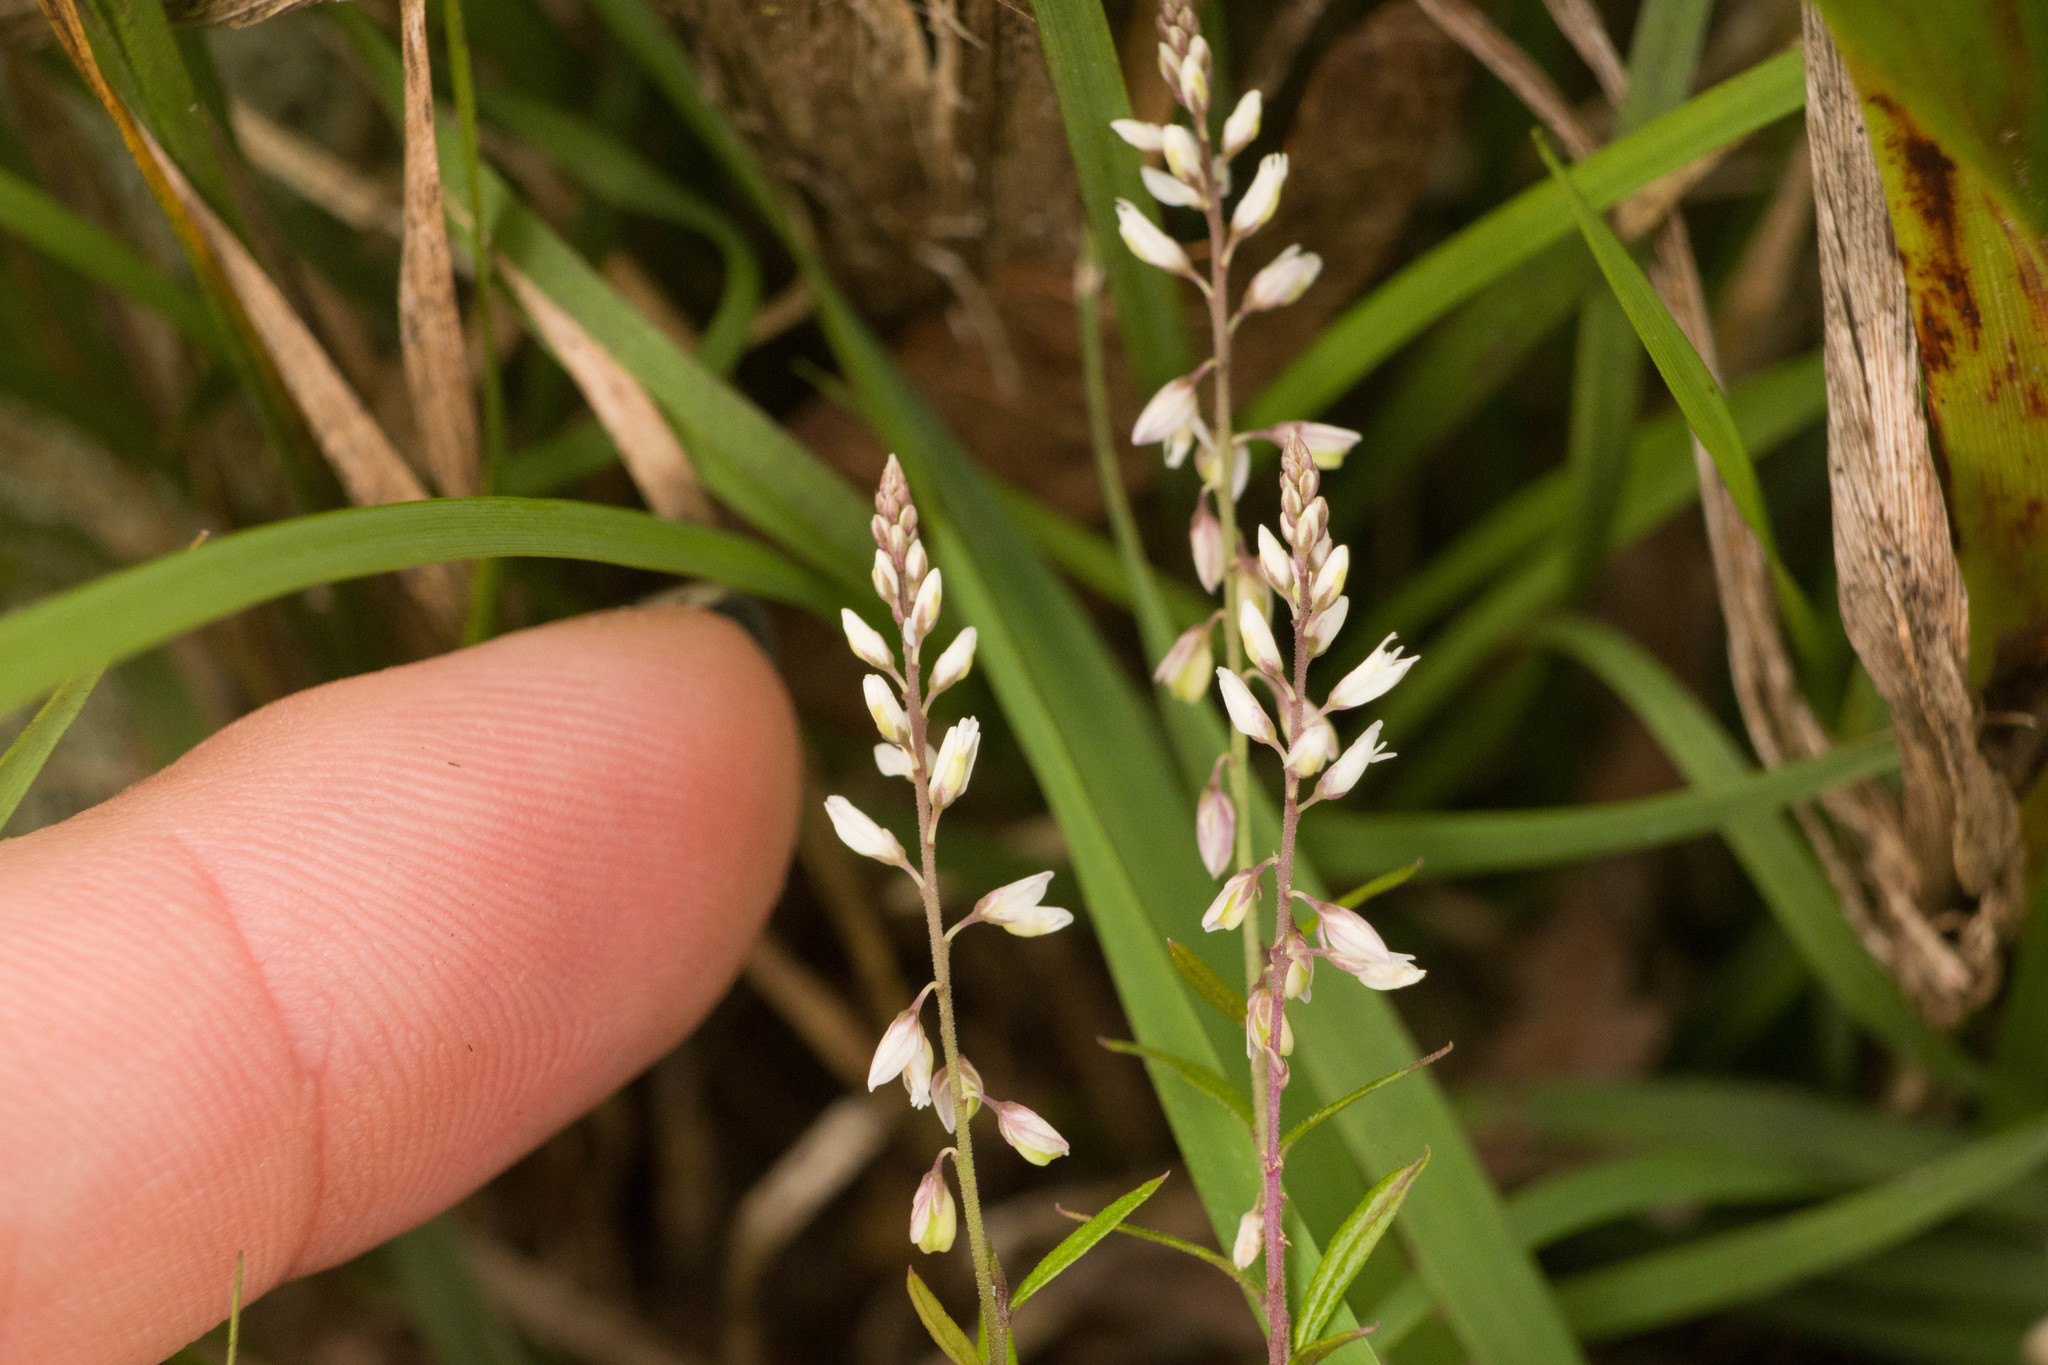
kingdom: Plantae
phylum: Tracheophyta
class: Magnoliopsida
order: Fabales
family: Polygalaceae
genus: Polygala
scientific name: Polygala paniculata
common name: Orosne
